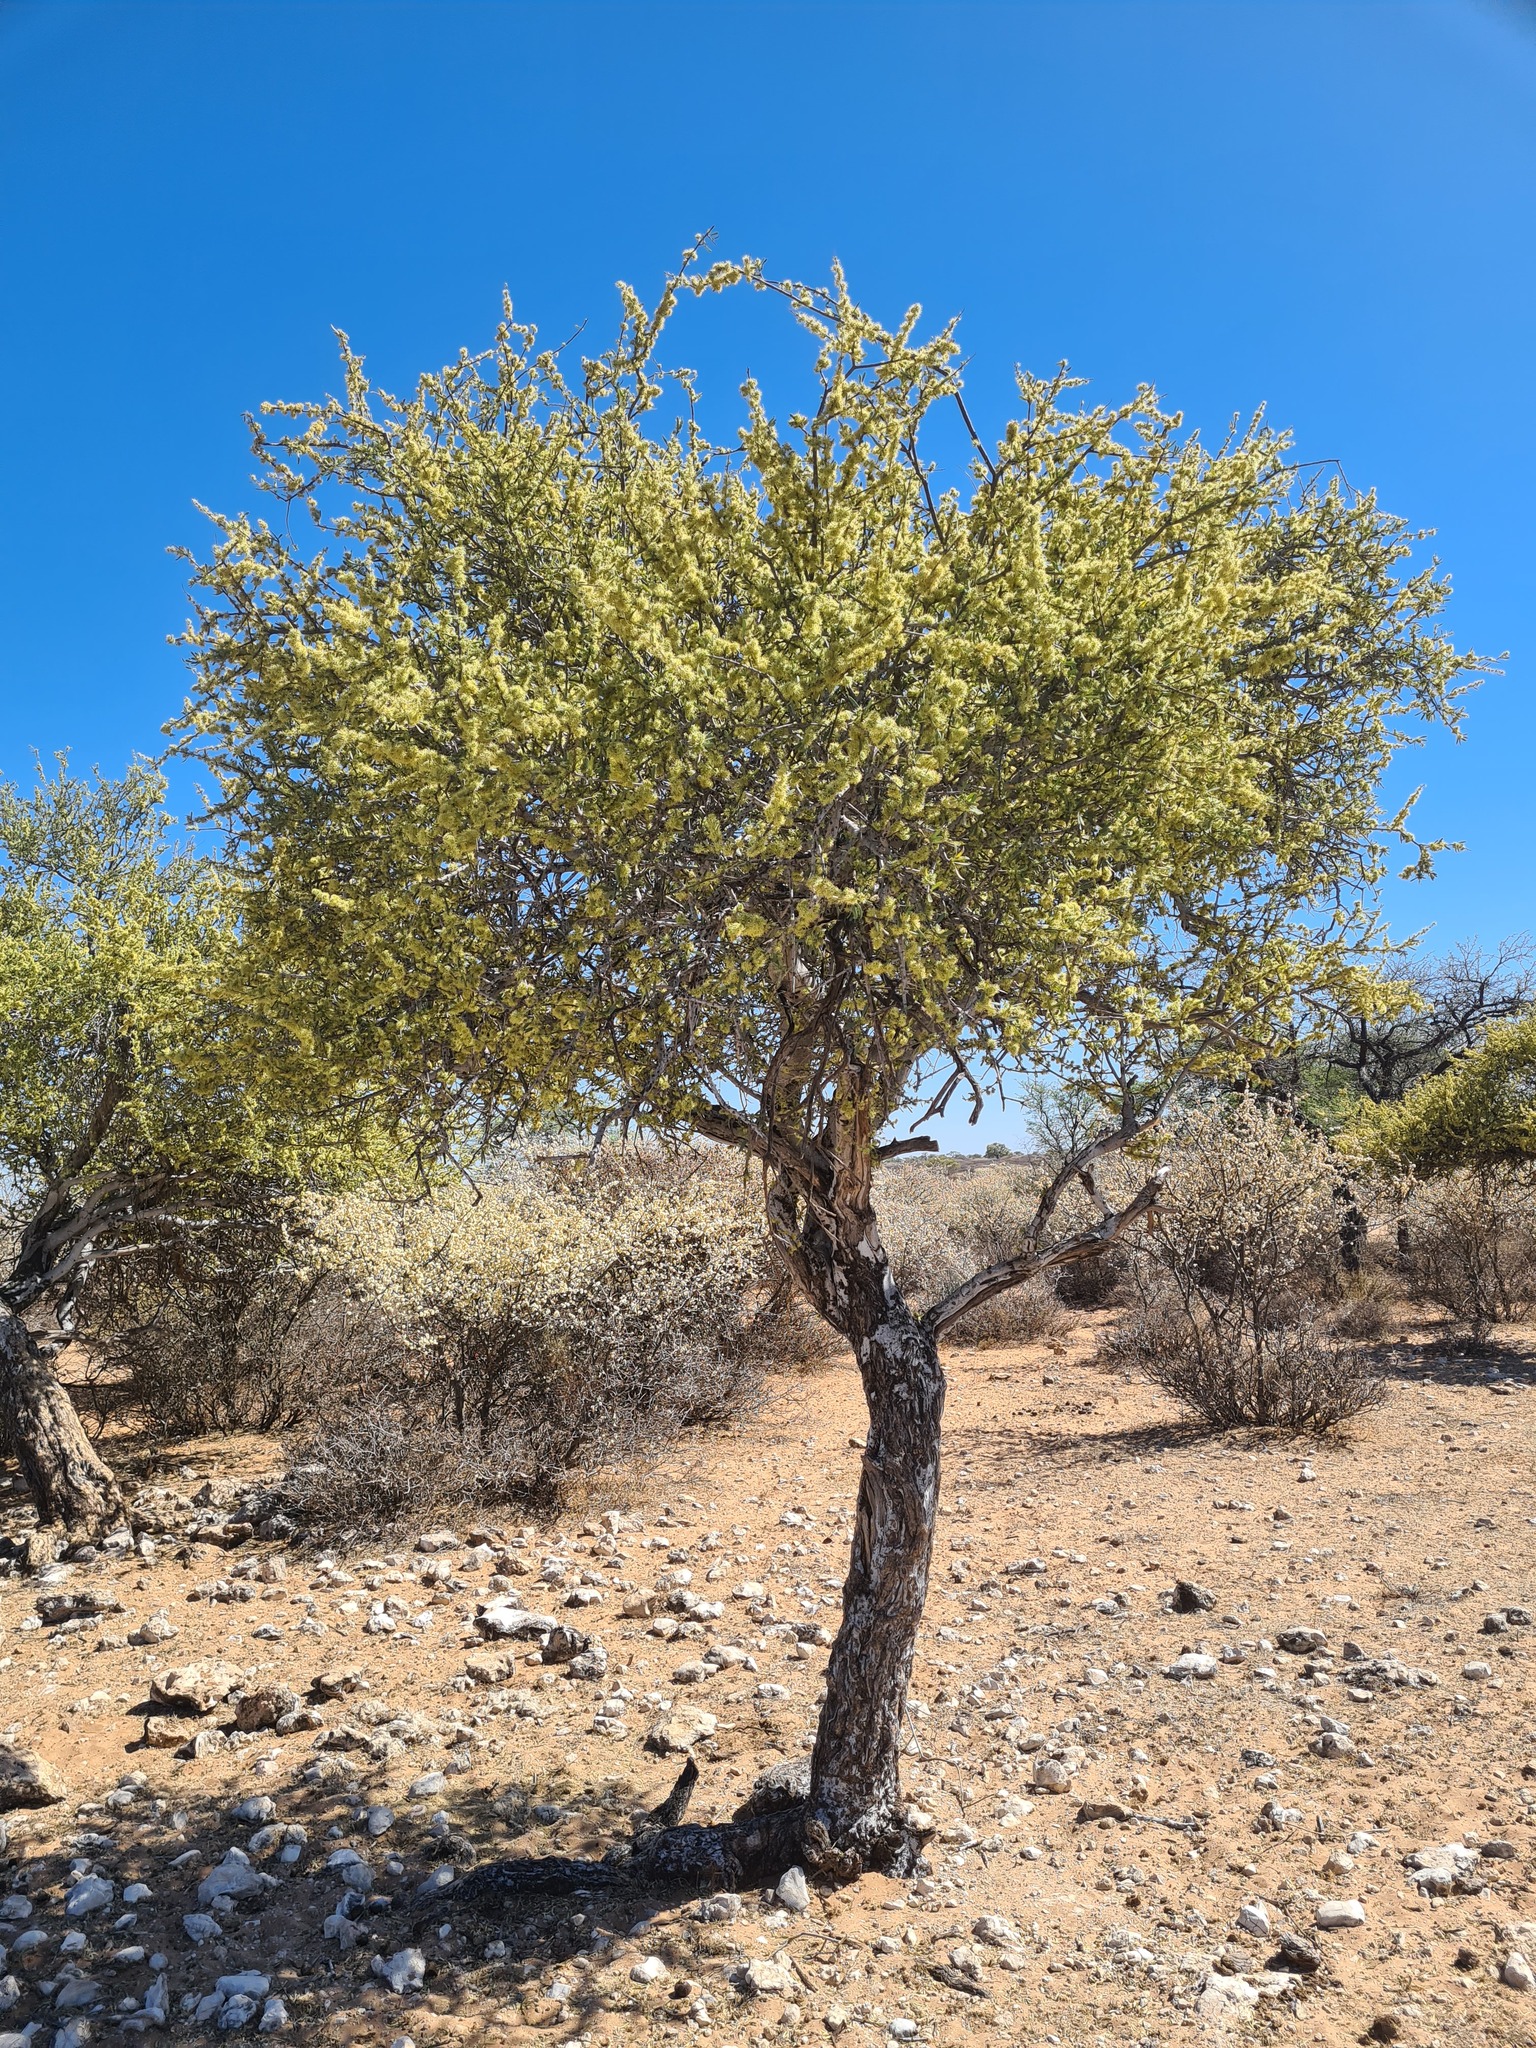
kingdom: Plantae
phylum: Tracheophyta
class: Magnoliopsida
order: Brassicales
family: Capparaceae
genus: Boscia
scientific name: Boscia albitrunca
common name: Caper bush
